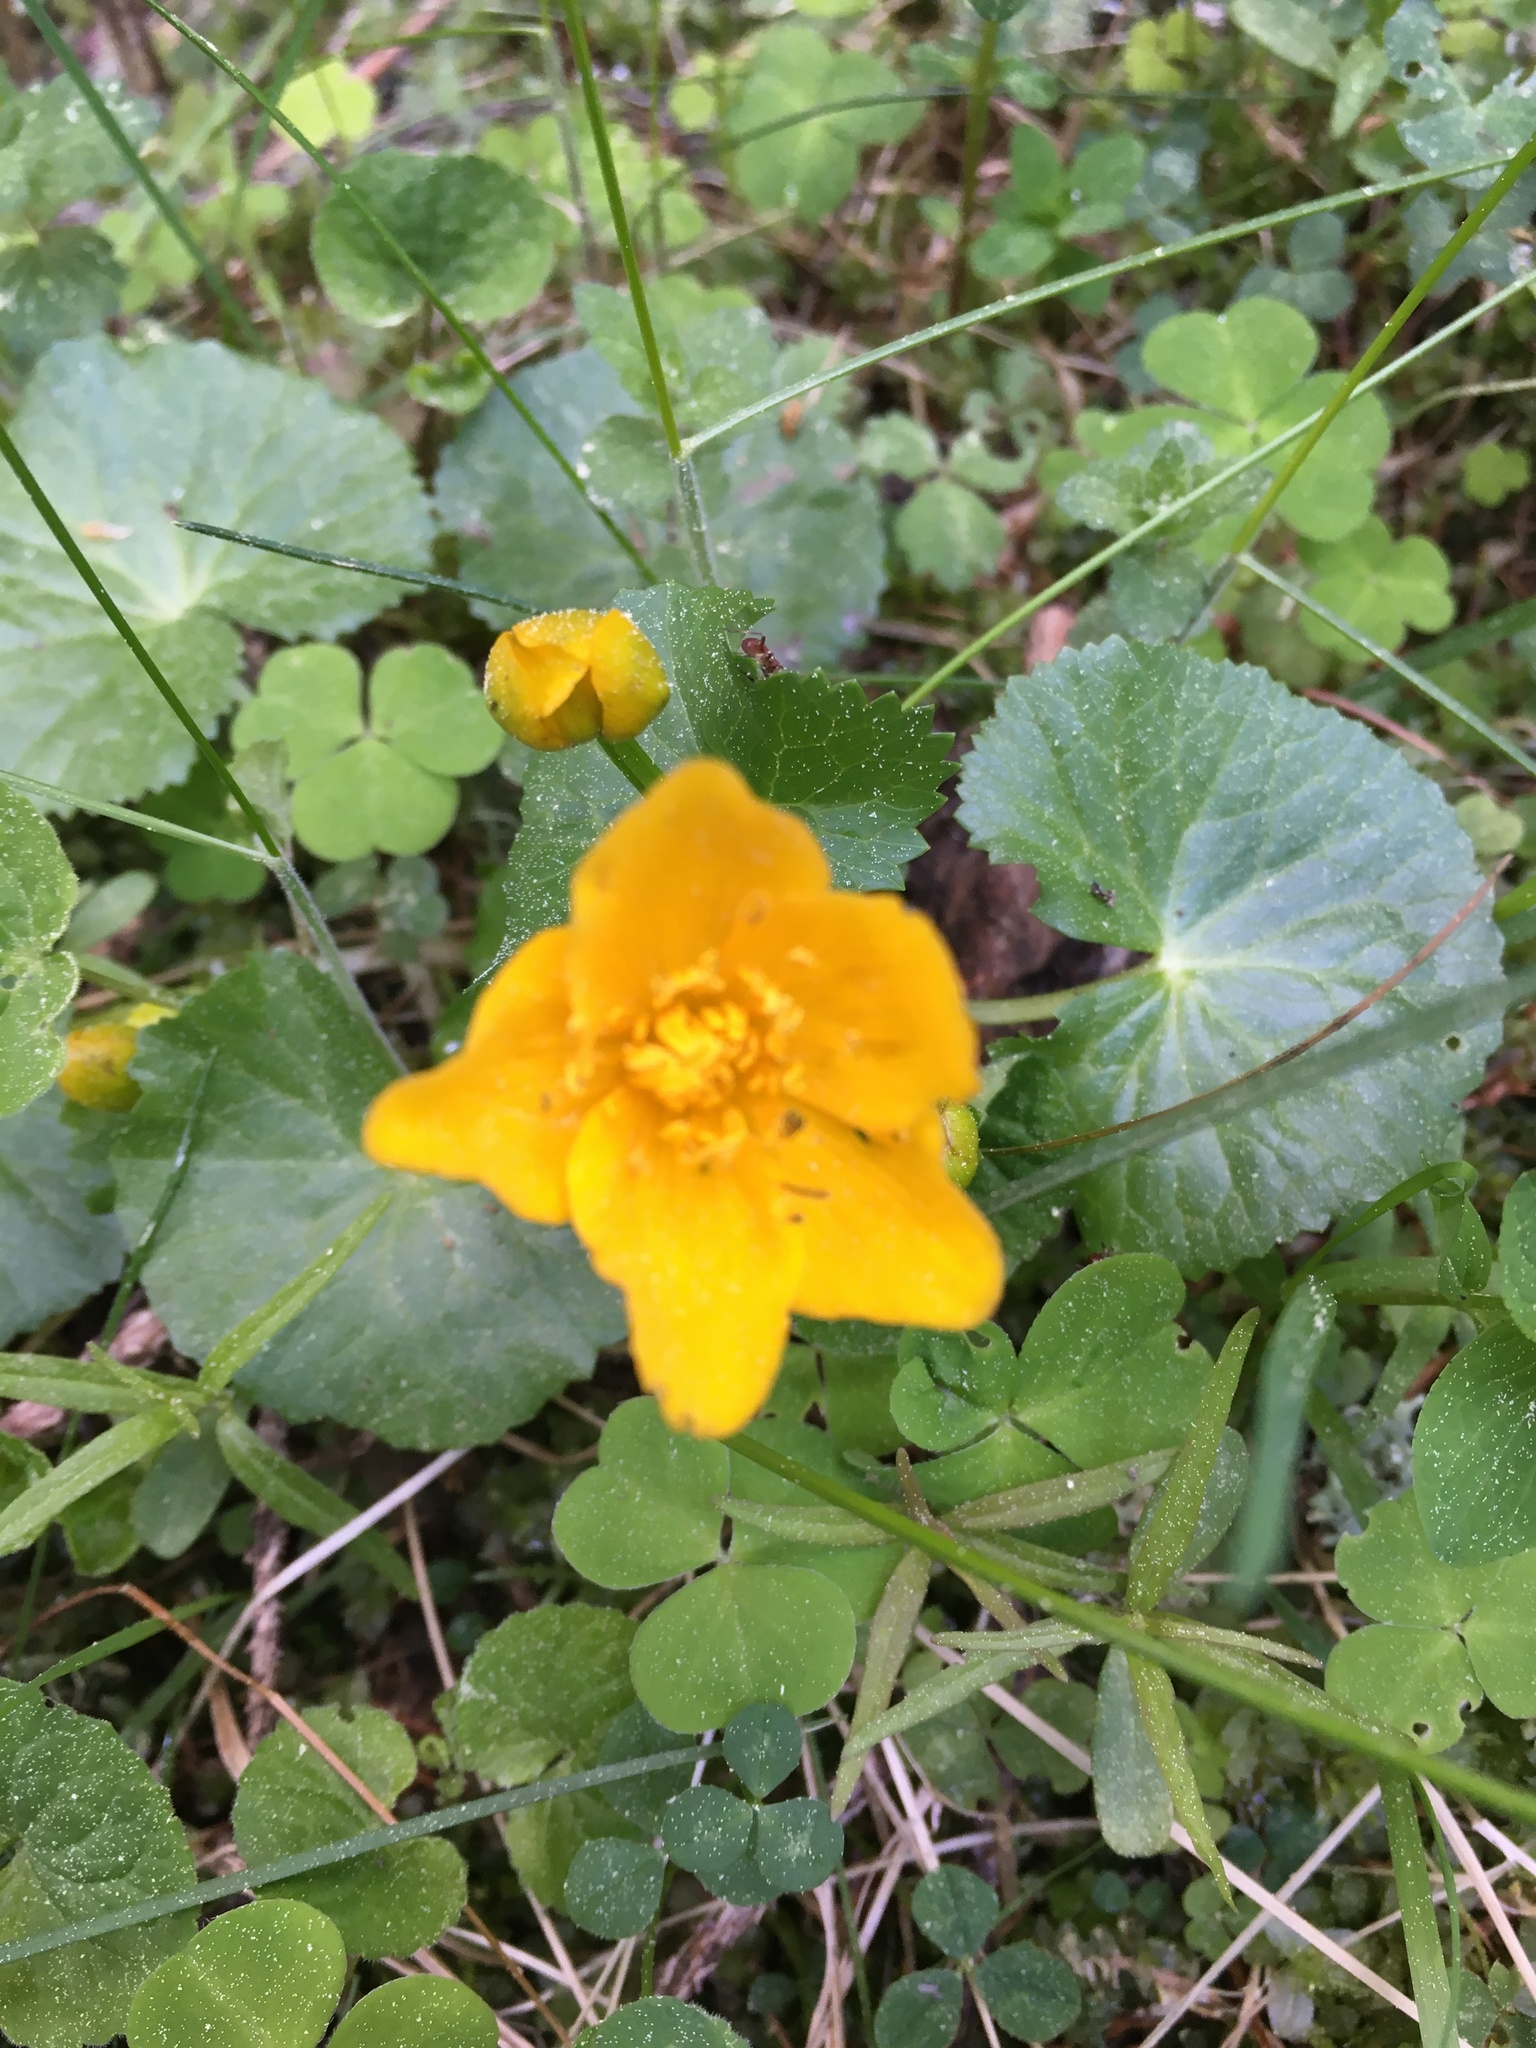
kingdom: Plantae
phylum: Tracheophyta
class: Magnoliopsida
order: Ranunculales
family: Ranunculaceae
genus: Caltha
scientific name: Caltha palustris
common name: Marsh marigold
